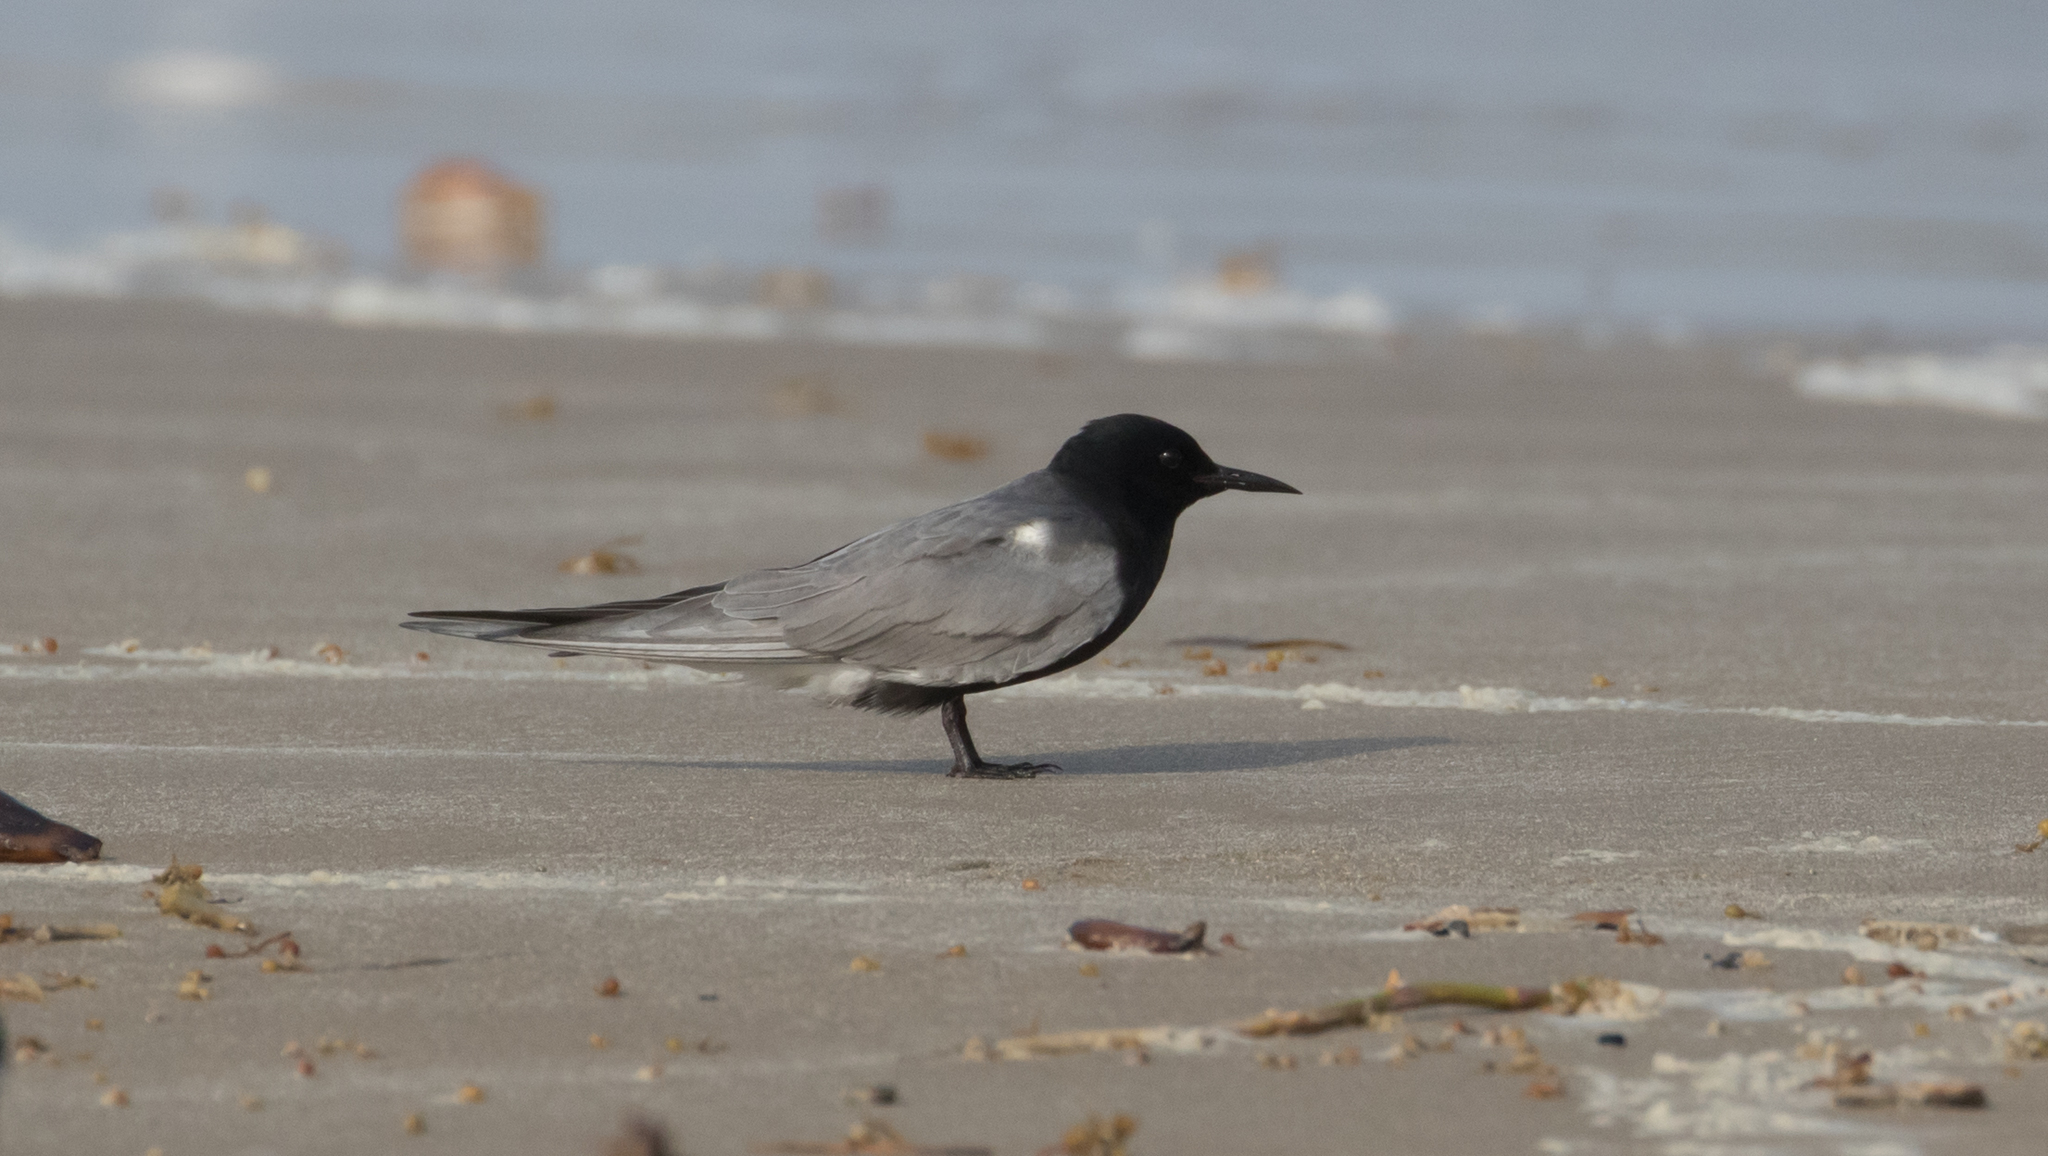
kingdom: Animalia
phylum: Chordata
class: Aves
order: Charadriiformes
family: Laridae
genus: Chlidonias
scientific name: Chlidonias niger
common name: Black tern
